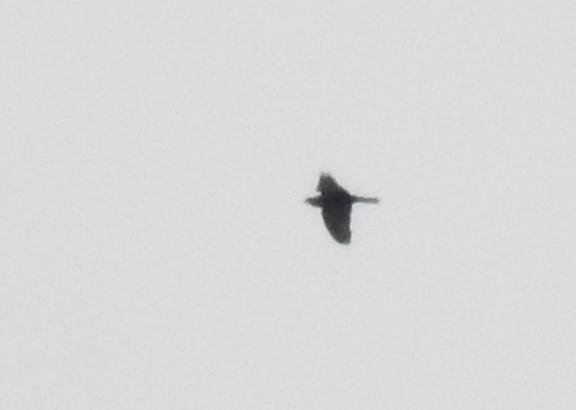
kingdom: Animalia
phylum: Chordata
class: Aves
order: Passeriformes
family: Corvidae
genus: Corvus
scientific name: Corvus brachyrhynchos
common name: American crow
